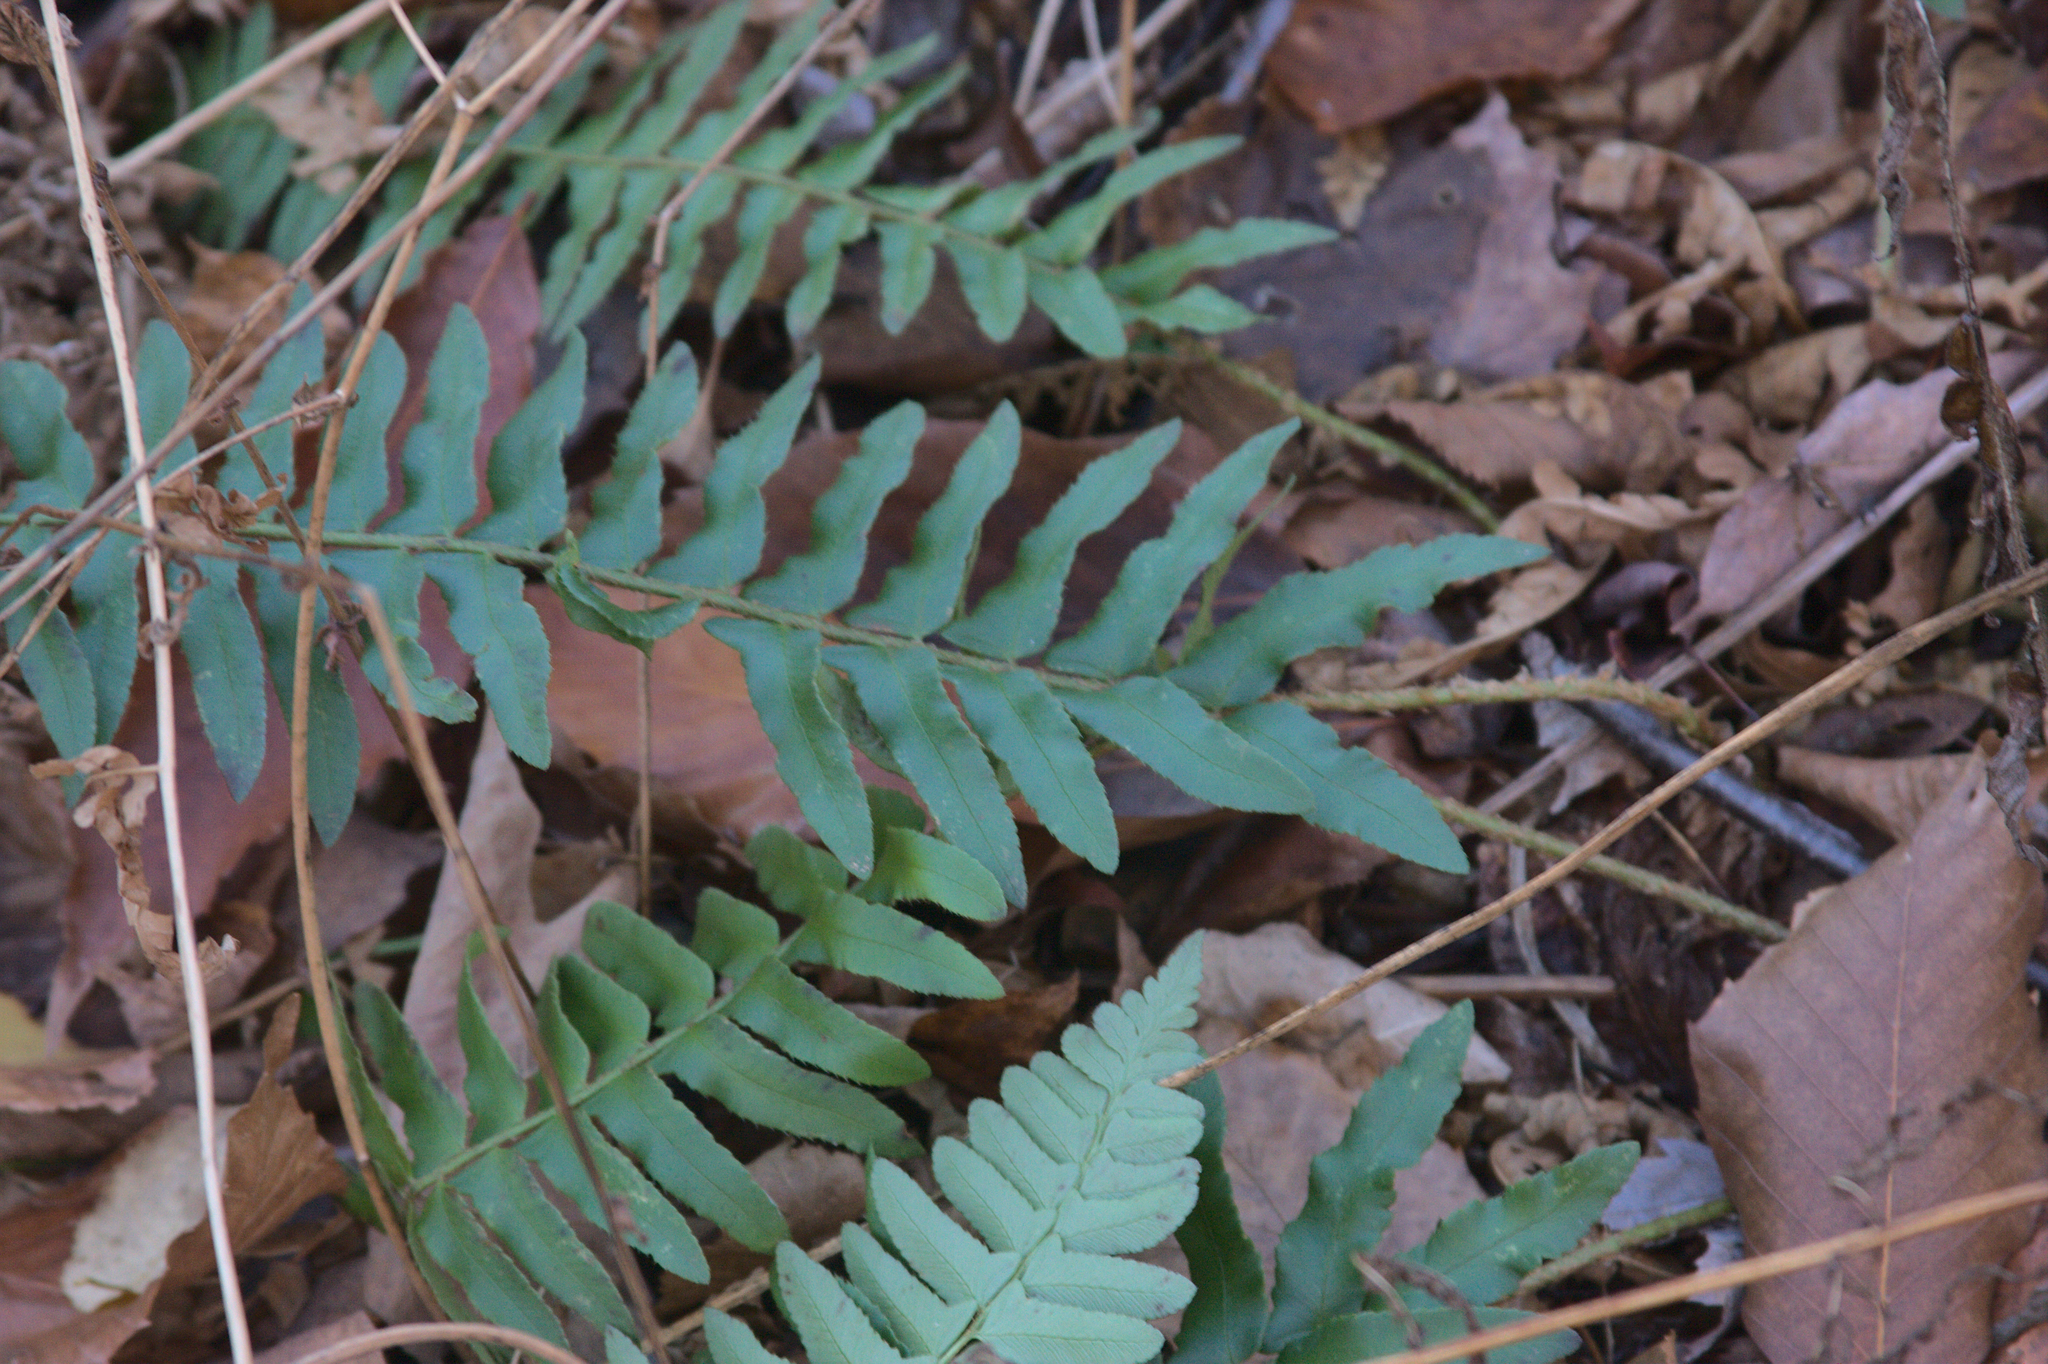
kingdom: Plantae
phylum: Tracheophyta
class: Polypodiopsida
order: Polypodiales
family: Dryopteridaceae
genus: Polystichum
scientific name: Polystichum acrostichoides
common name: Christmas fern
